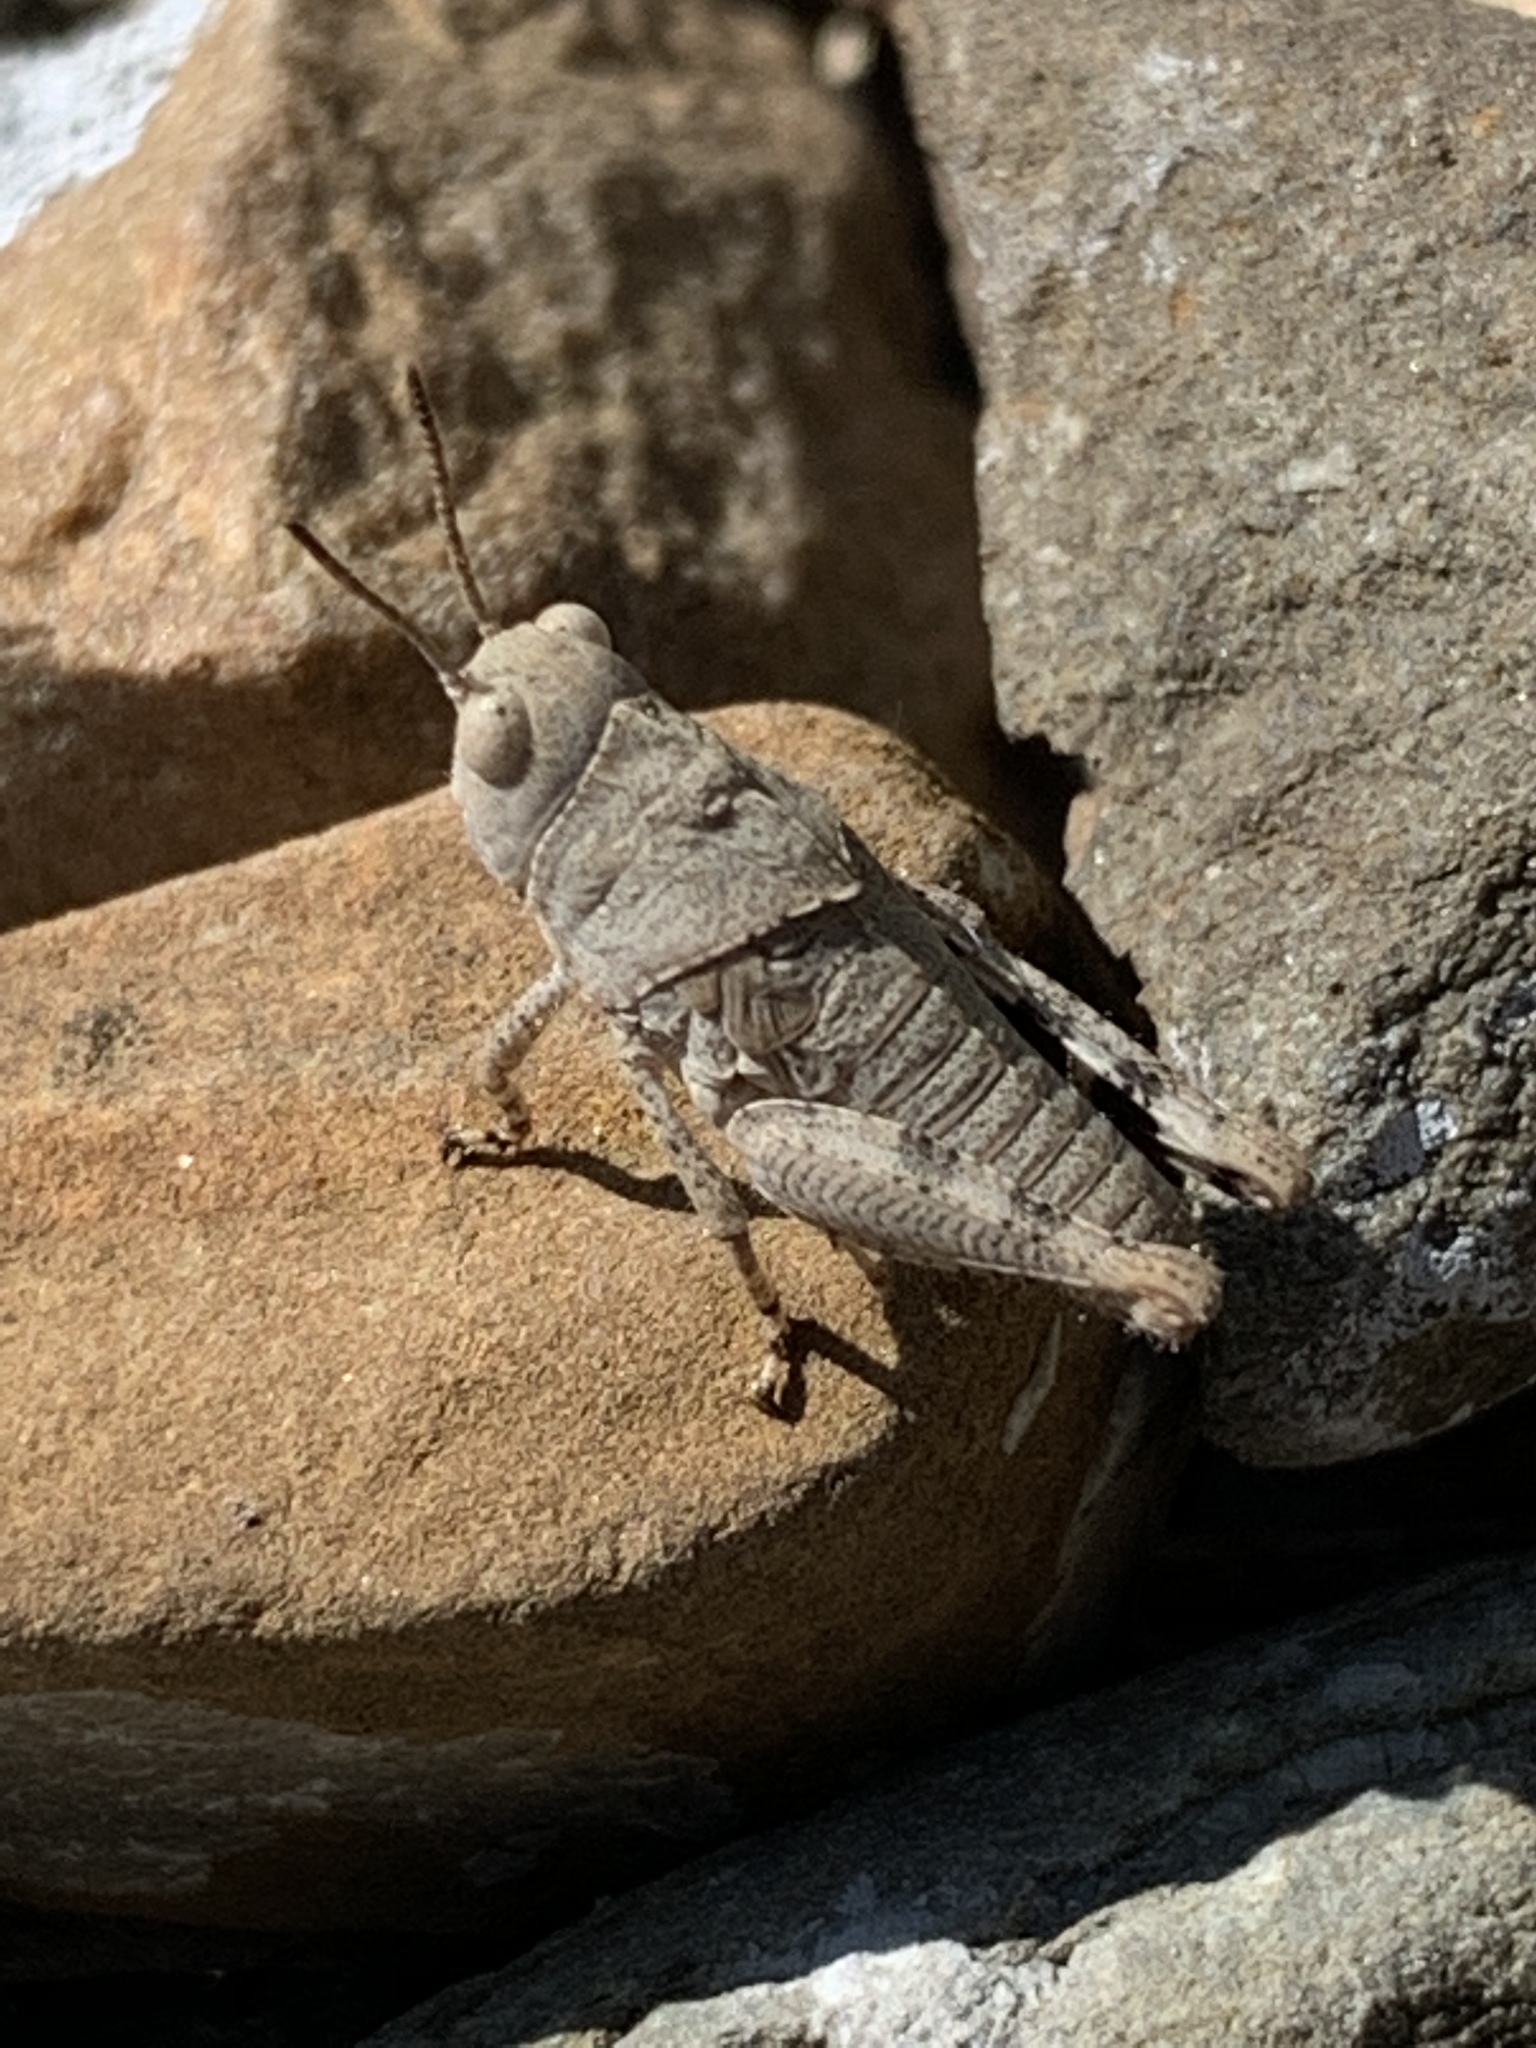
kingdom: Animalia
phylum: Arthropoda
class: Insecta
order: Orthoptera
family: Acrididae
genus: Dissosteira
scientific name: Dissosteira carolina
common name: Carolina grasshopper
